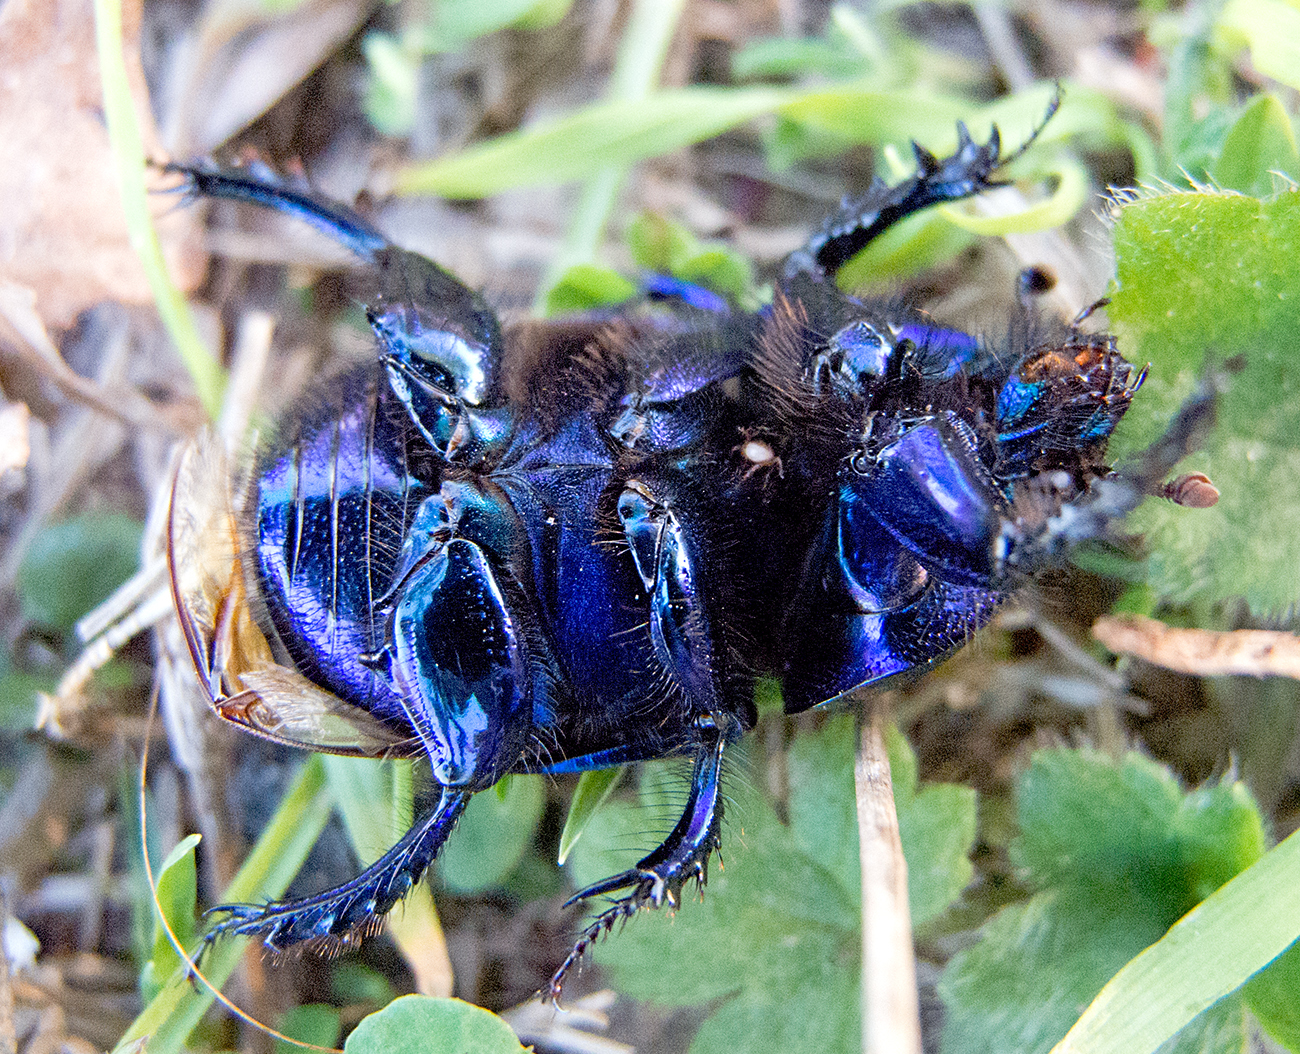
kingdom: Animalia
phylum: Arthropoda
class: Insecta
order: Coleoptera
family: Geotrupidae
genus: Geotrupes
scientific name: Geotrupes spiniger
